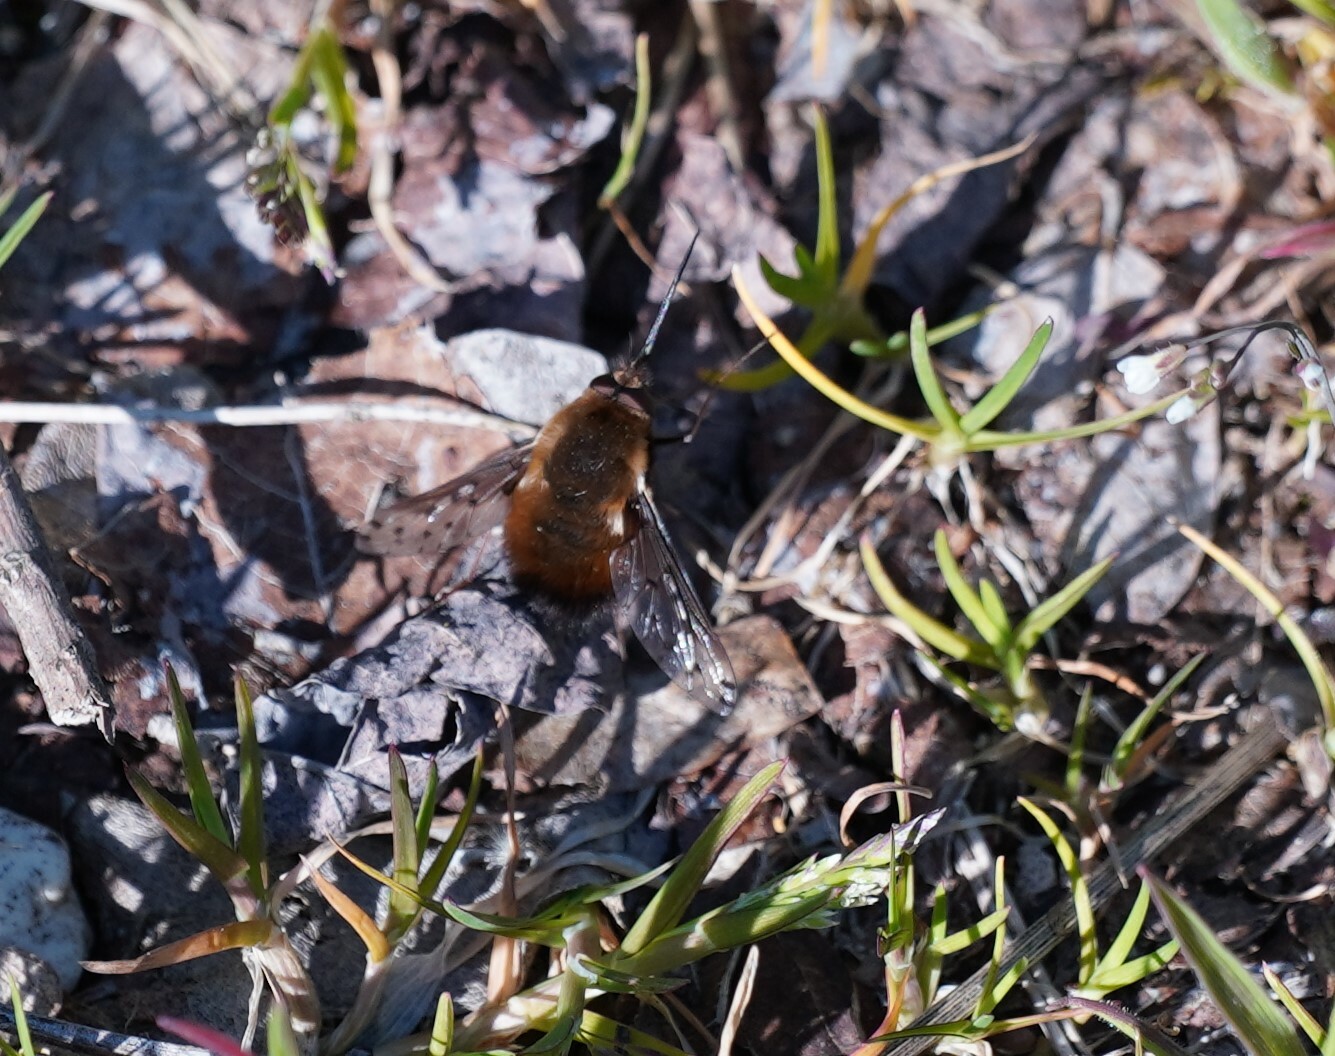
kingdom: Animalia
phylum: Arthropoda
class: Insecta
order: Diptera
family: Bombyliidae
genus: Bombylius
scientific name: Bombylius discolor
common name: Dotted bee-fly
